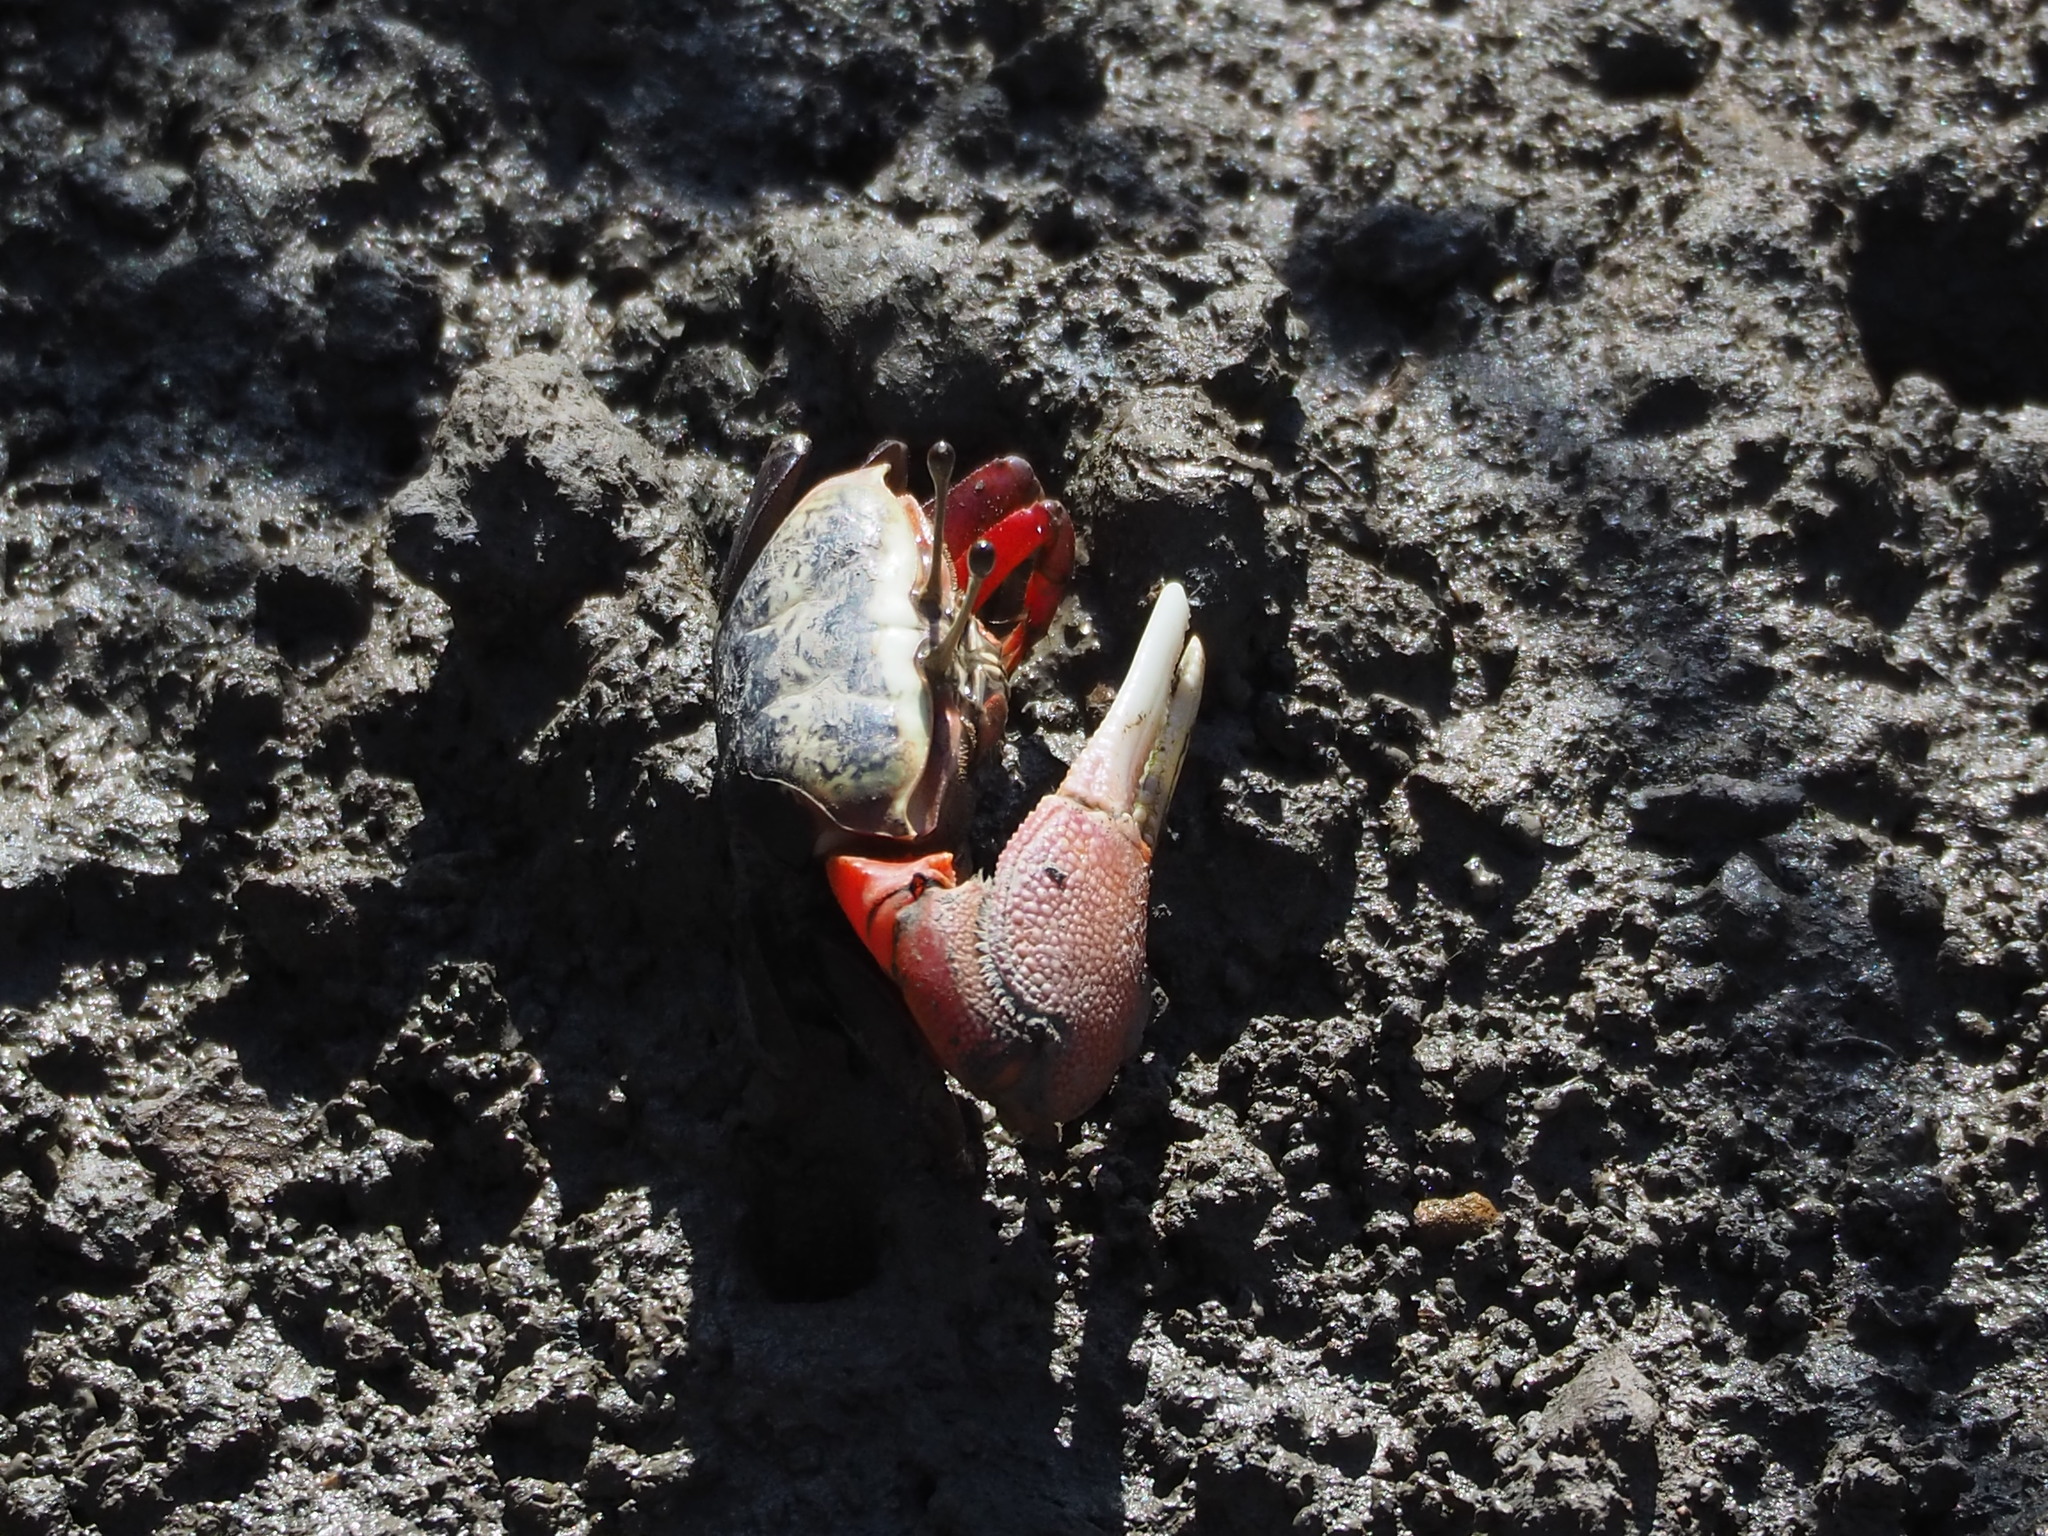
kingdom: Animalia
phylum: Arthropoda
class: Malacostraca
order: Decapoda
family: Ocypodidae
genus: Tubuca
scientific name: Tubuca arcuata
